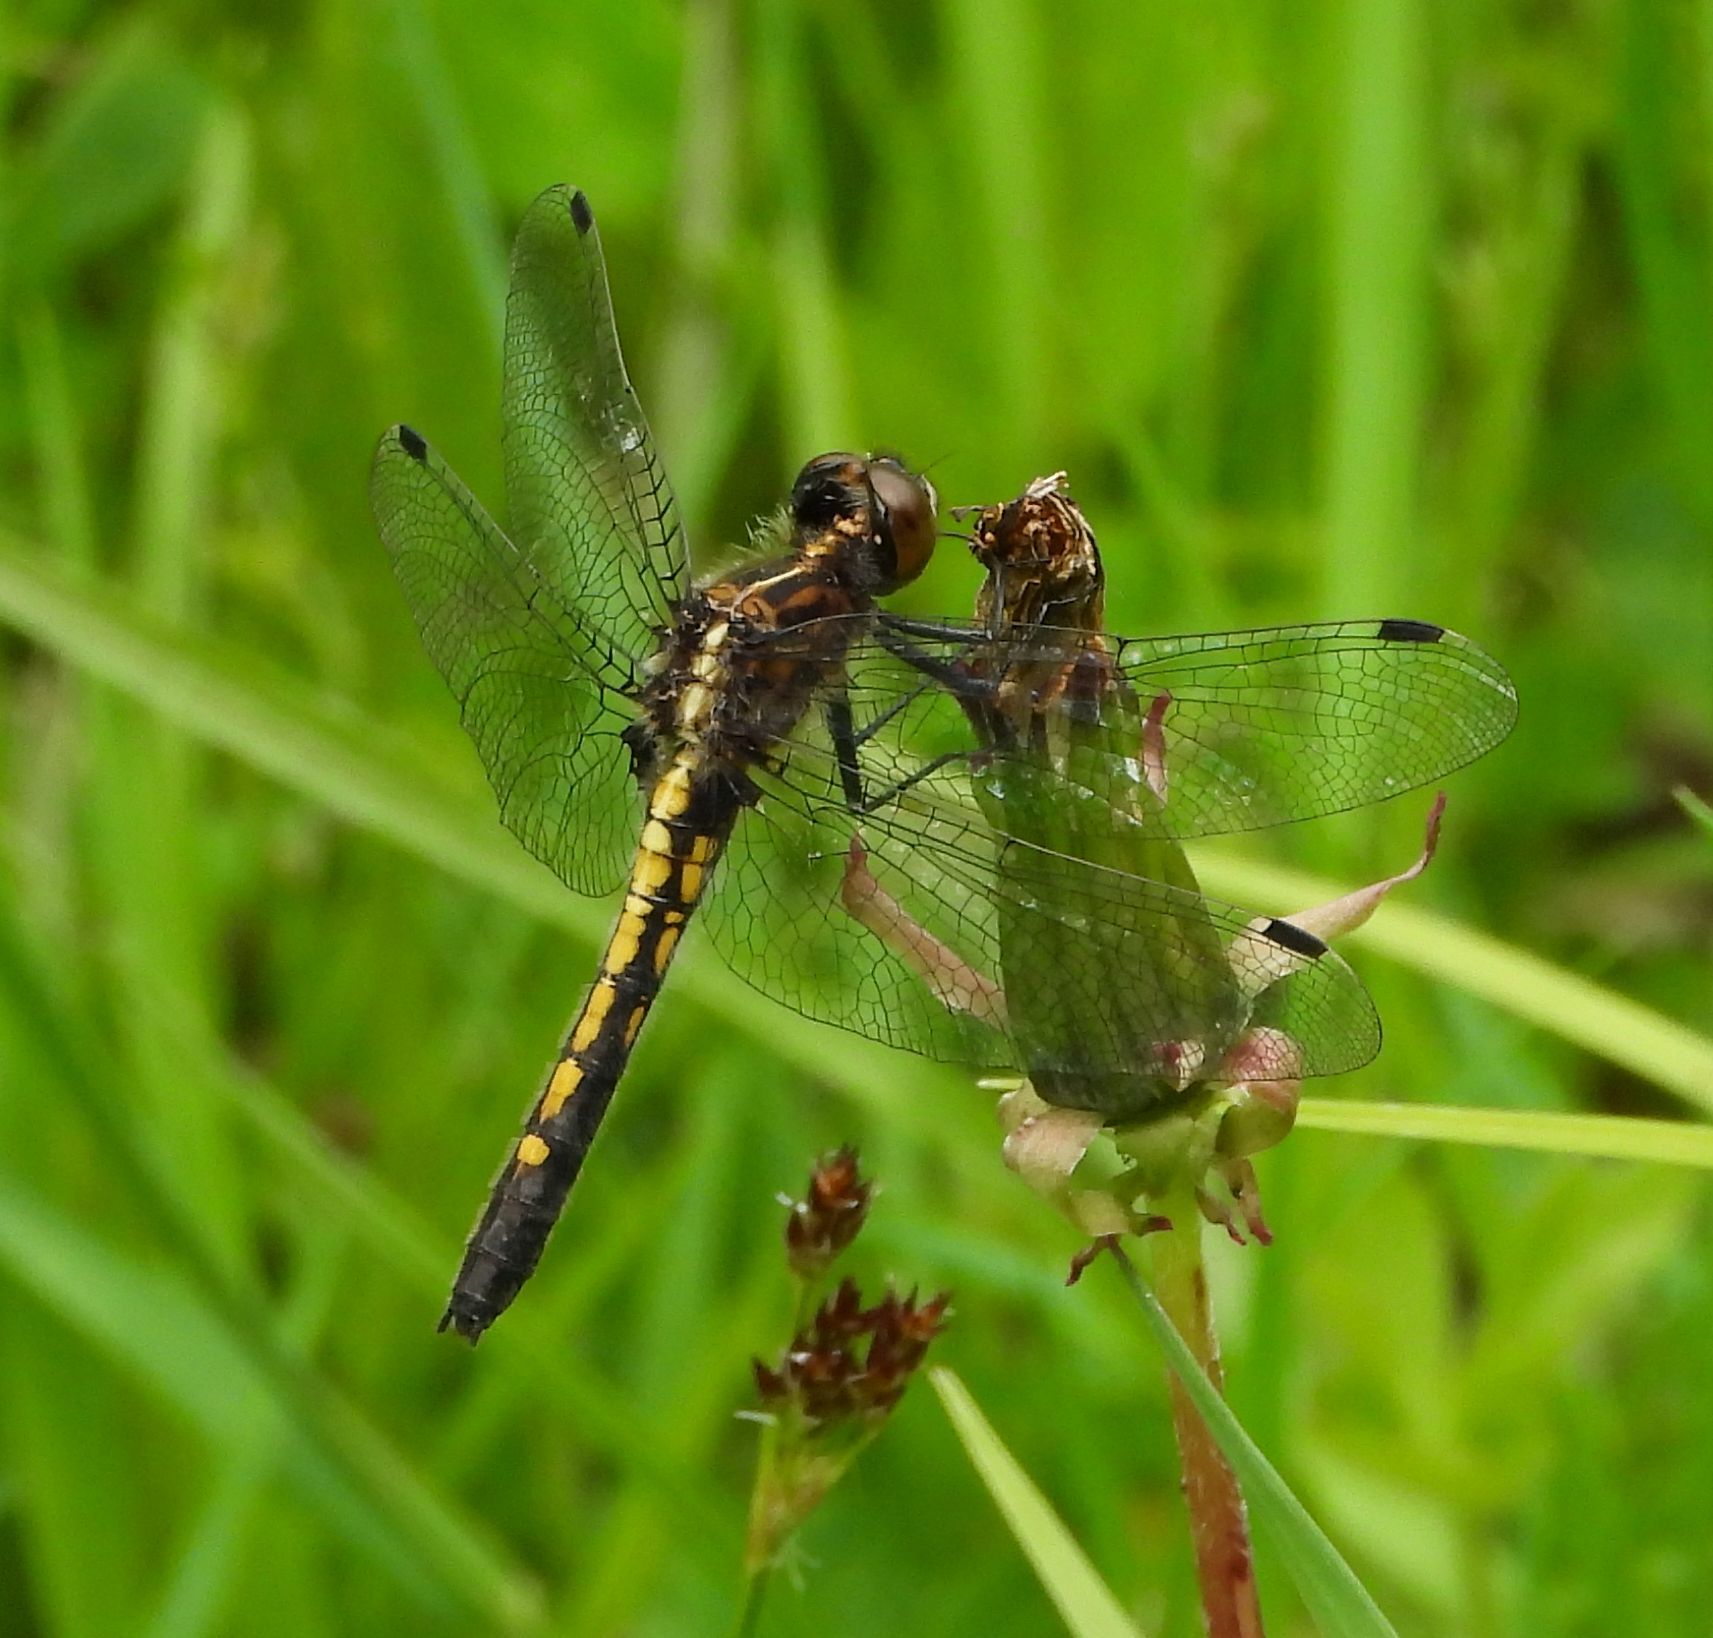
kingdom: Animalia
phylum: Arthropoda
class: Insecta
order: Odonata
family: Libellulidae
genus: Leucorrhinia
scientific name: Leucorrhinia intacta
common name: Dot-tailed whiteface
